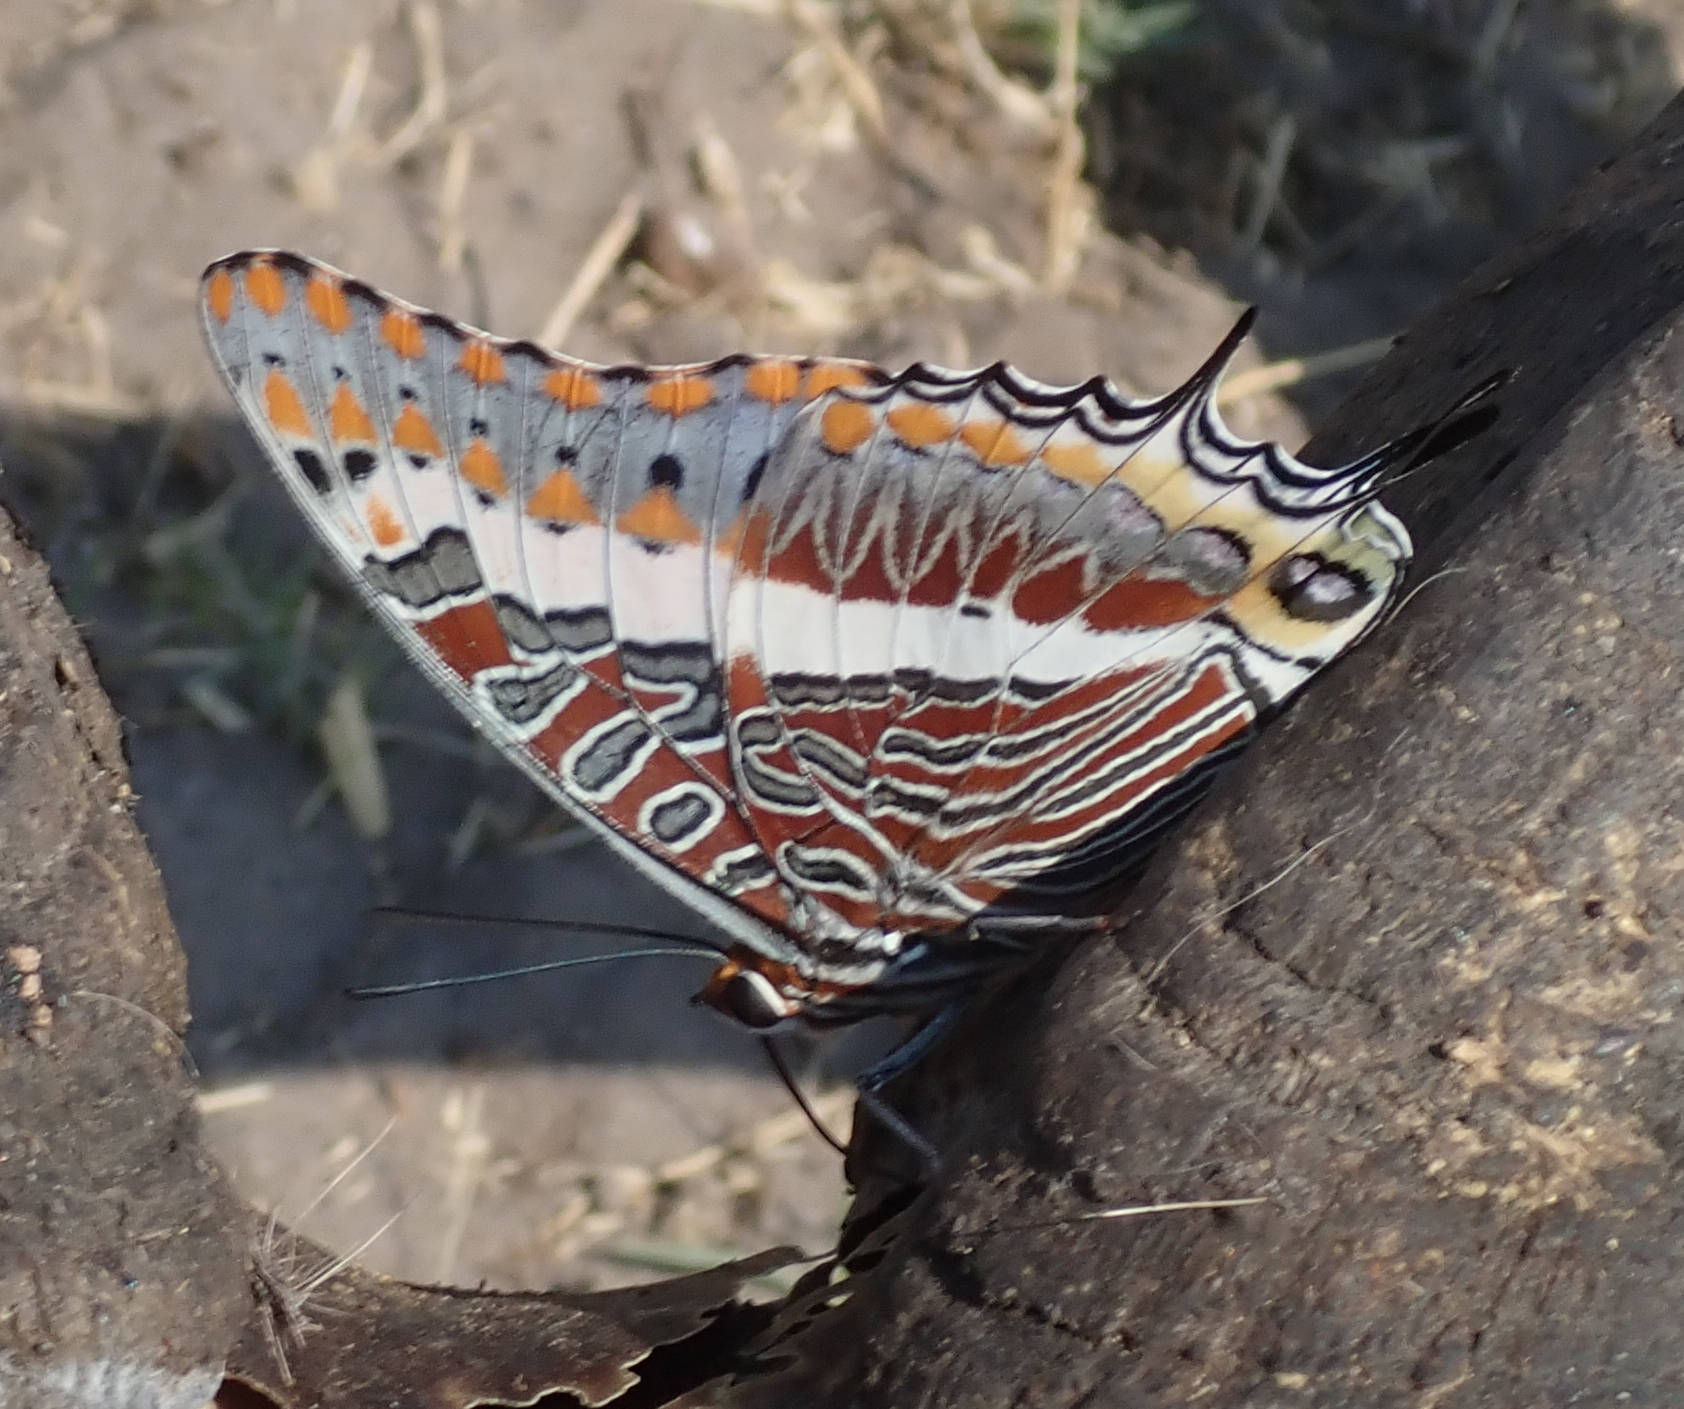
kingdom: Animalia
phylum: Arthropoda
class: Insecta
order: Lepidoptera
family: Nymphalidae
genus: Charaxes
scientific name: Charaxes jasius
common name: Two tailed pasha
